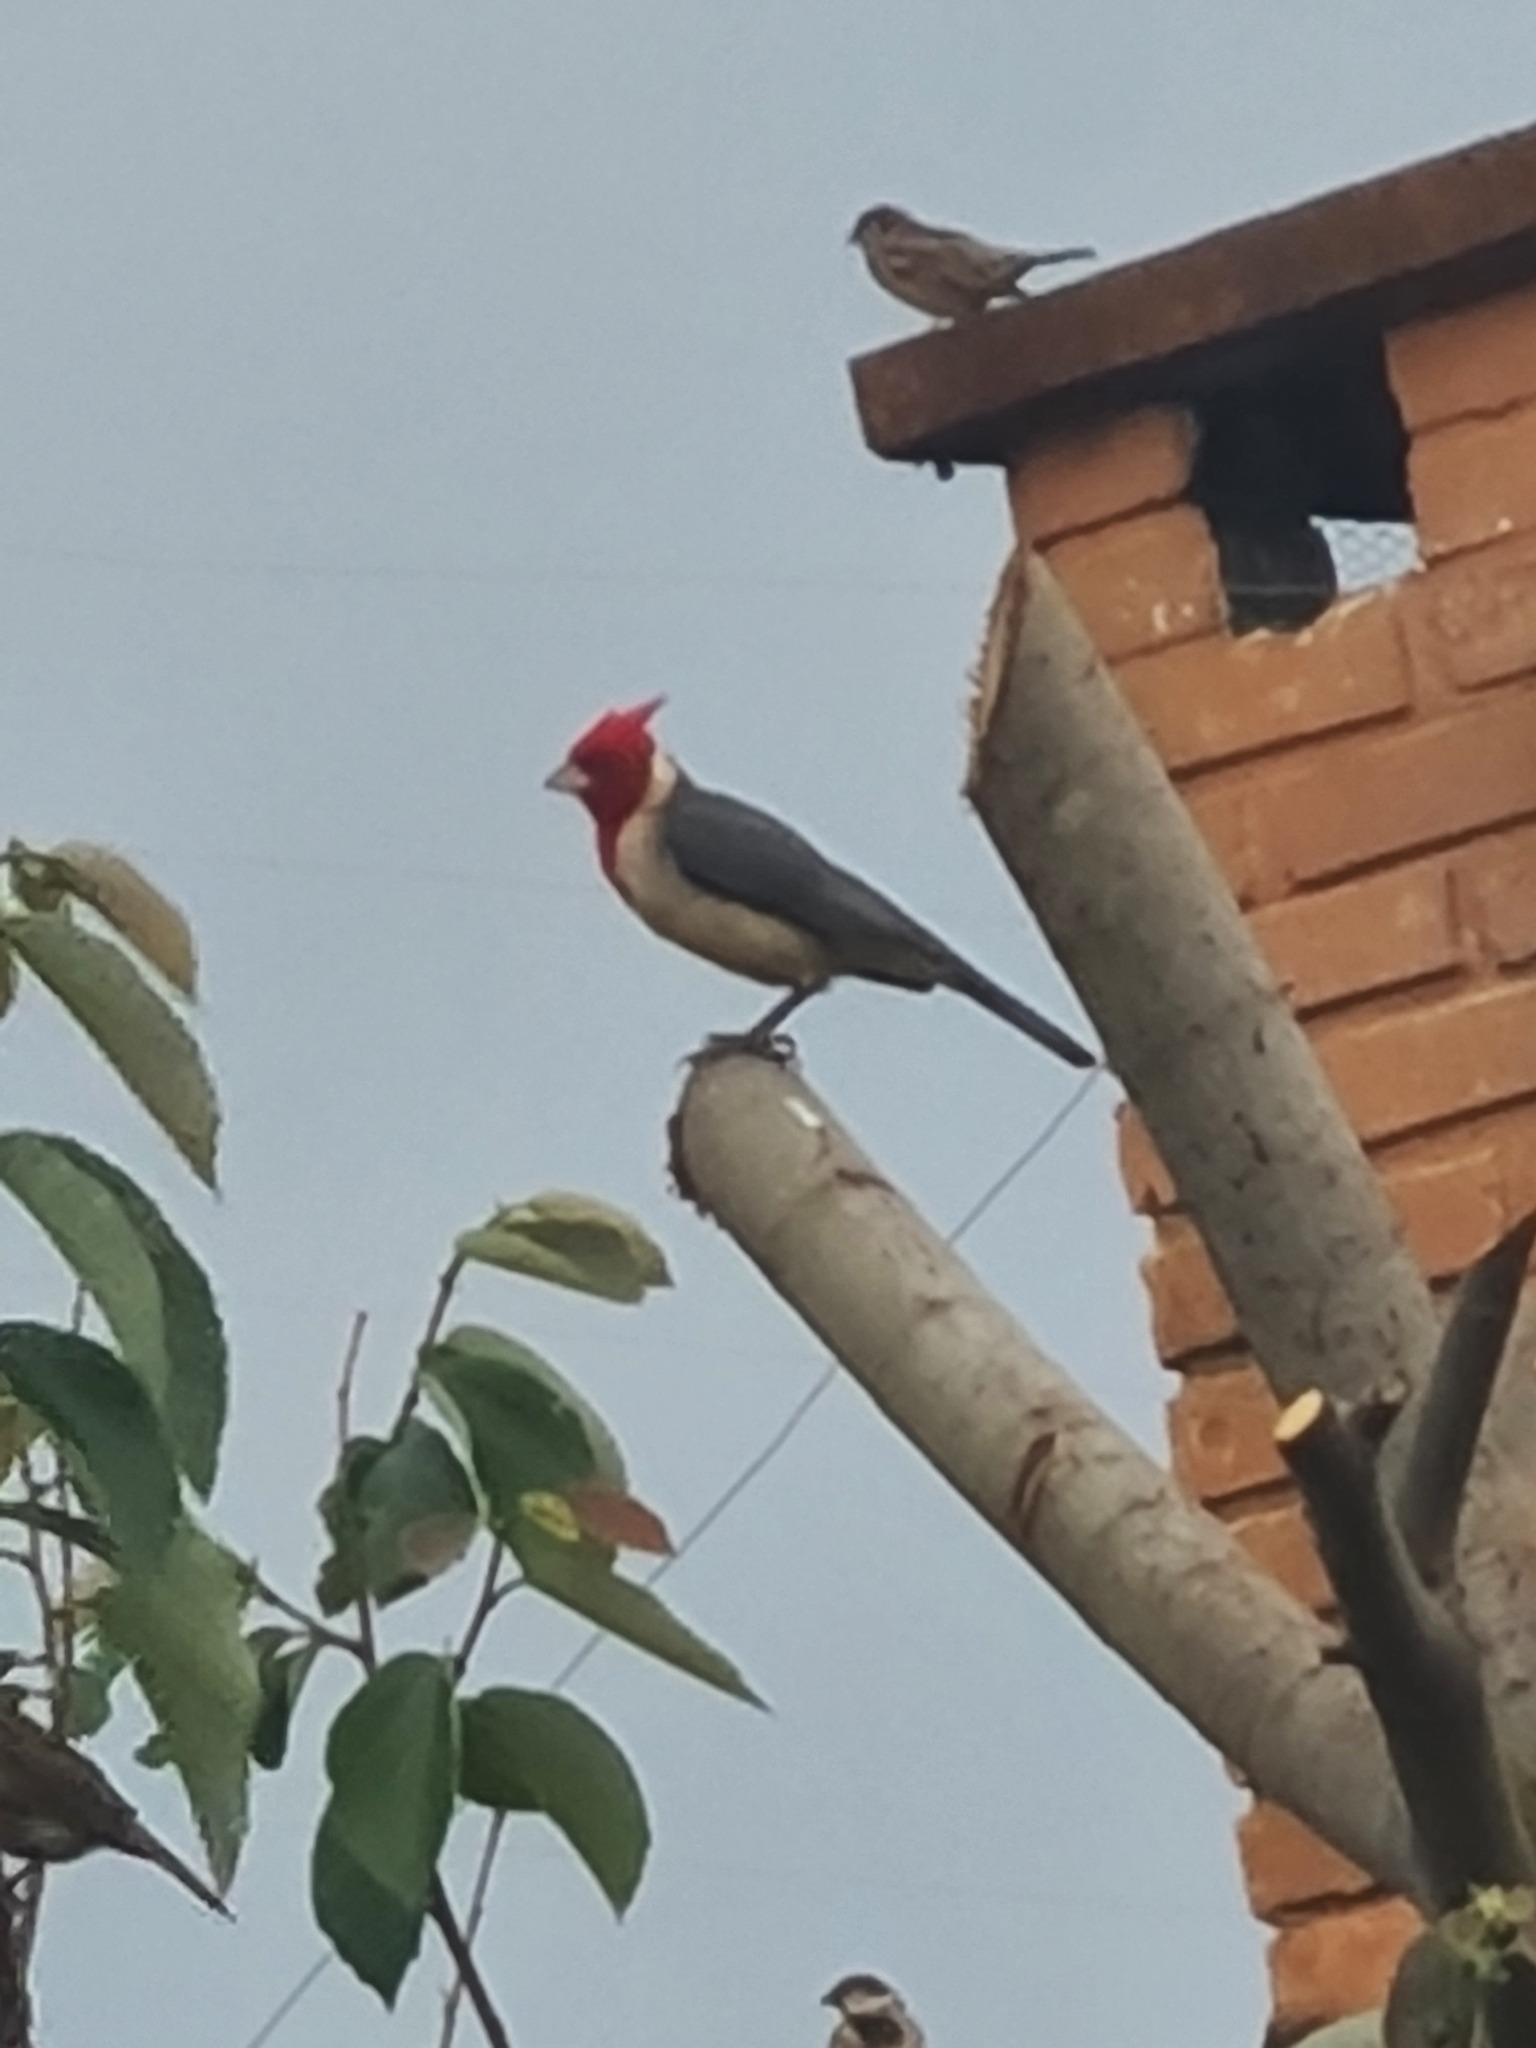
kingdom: Animalia
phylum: Chordata
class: Aves
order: Passeriformes
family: Thraupidae
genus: Paroaria
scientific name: Paroaria coronata
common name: Red-crested cardinal
